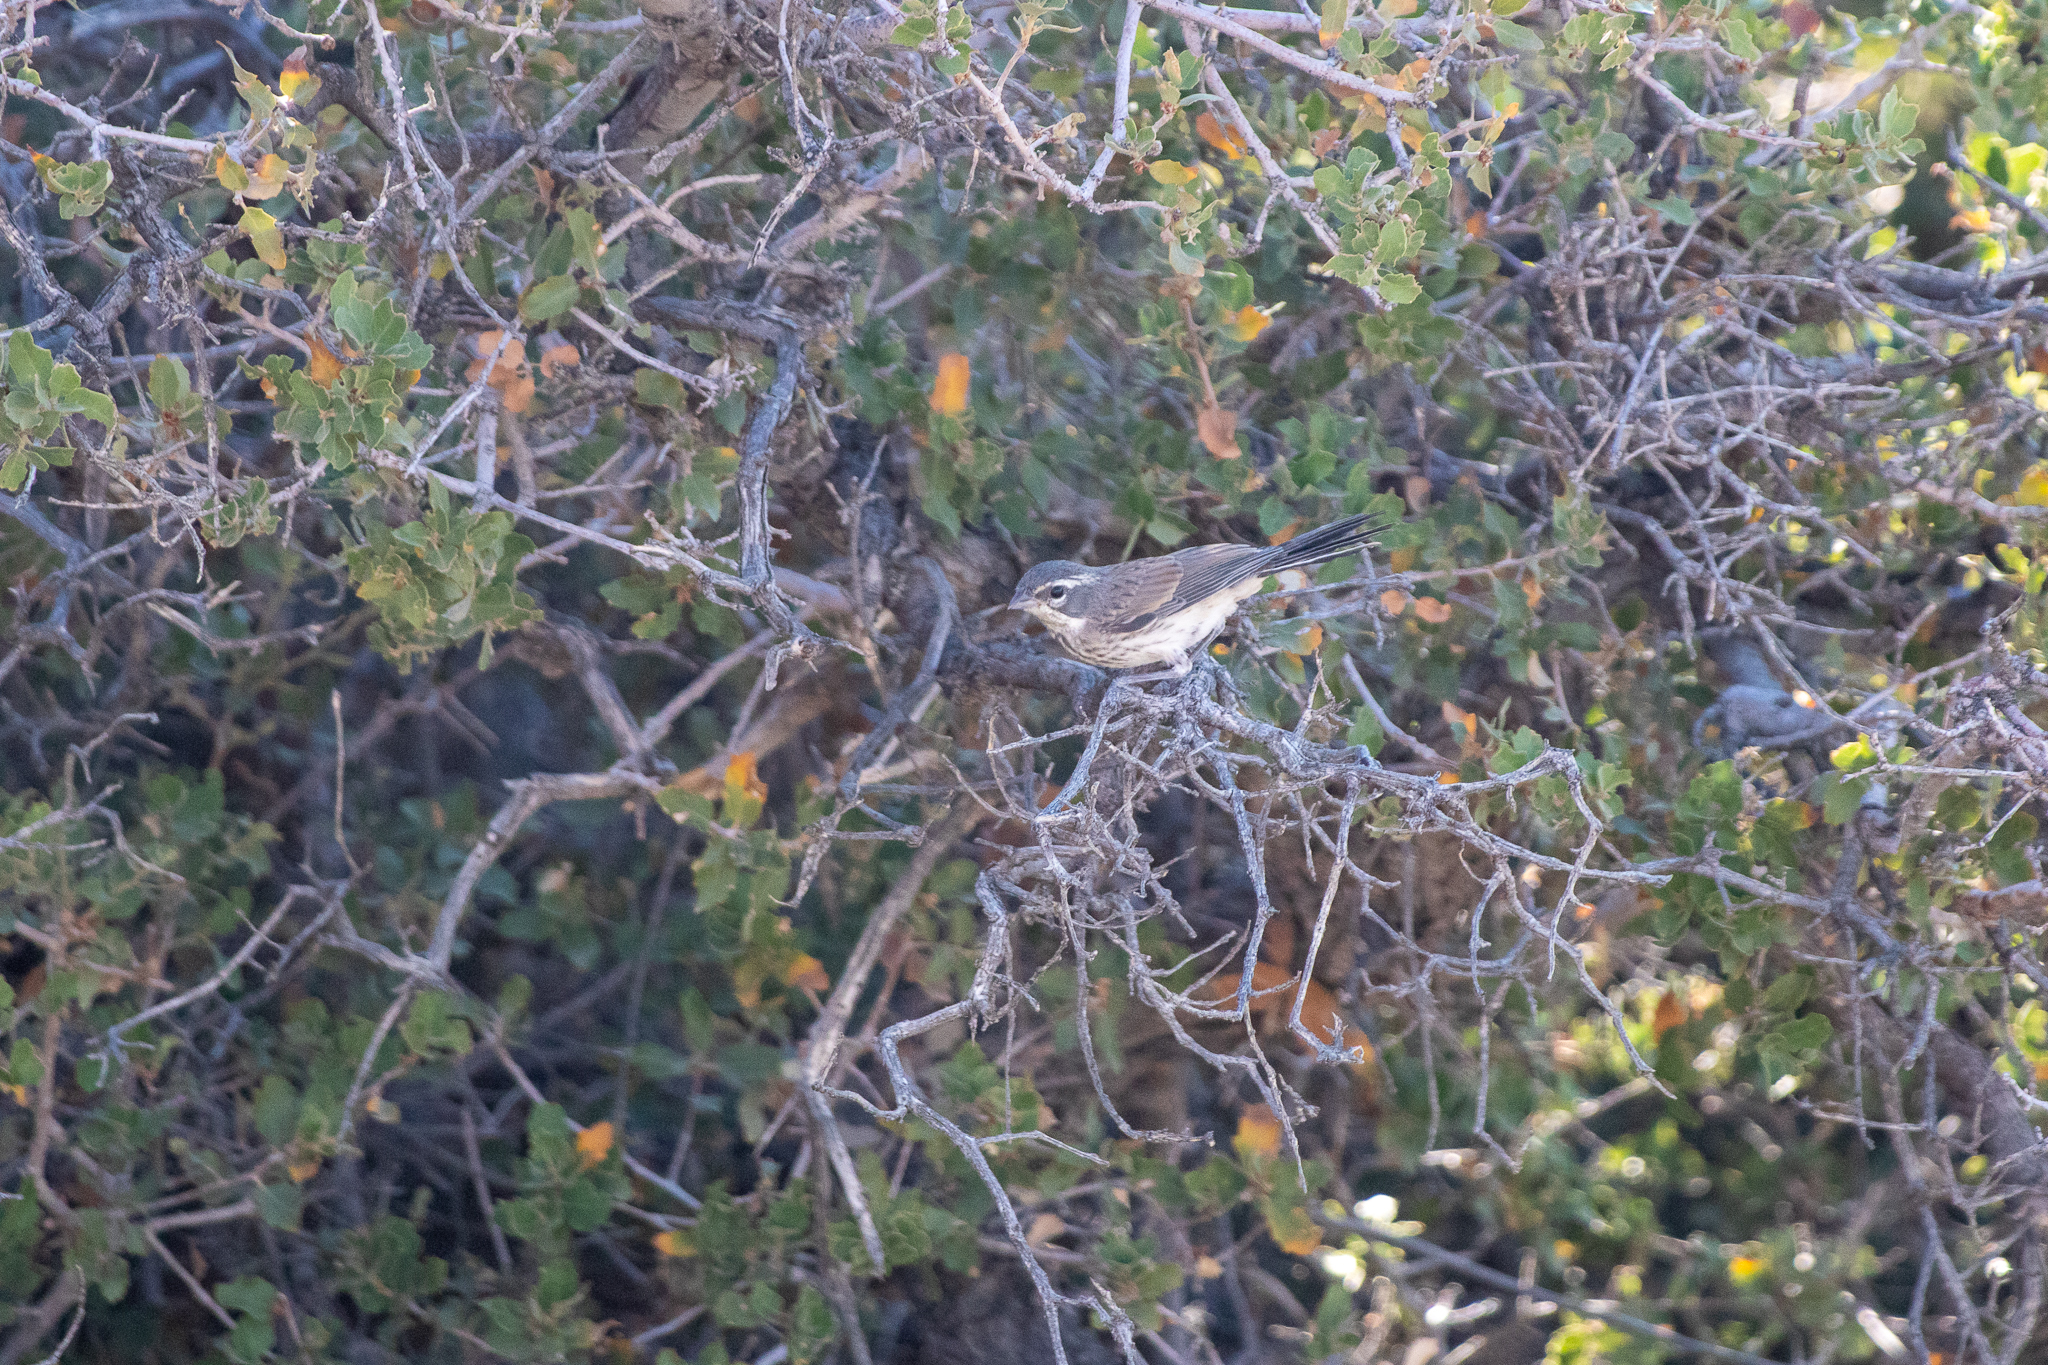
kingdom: Animalia
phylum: Chordata
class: Aves
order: Passeriformes
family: Passerellidae
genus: Amphispiza
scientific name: Amphispiza bilineata
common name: Black-throated sparrow
